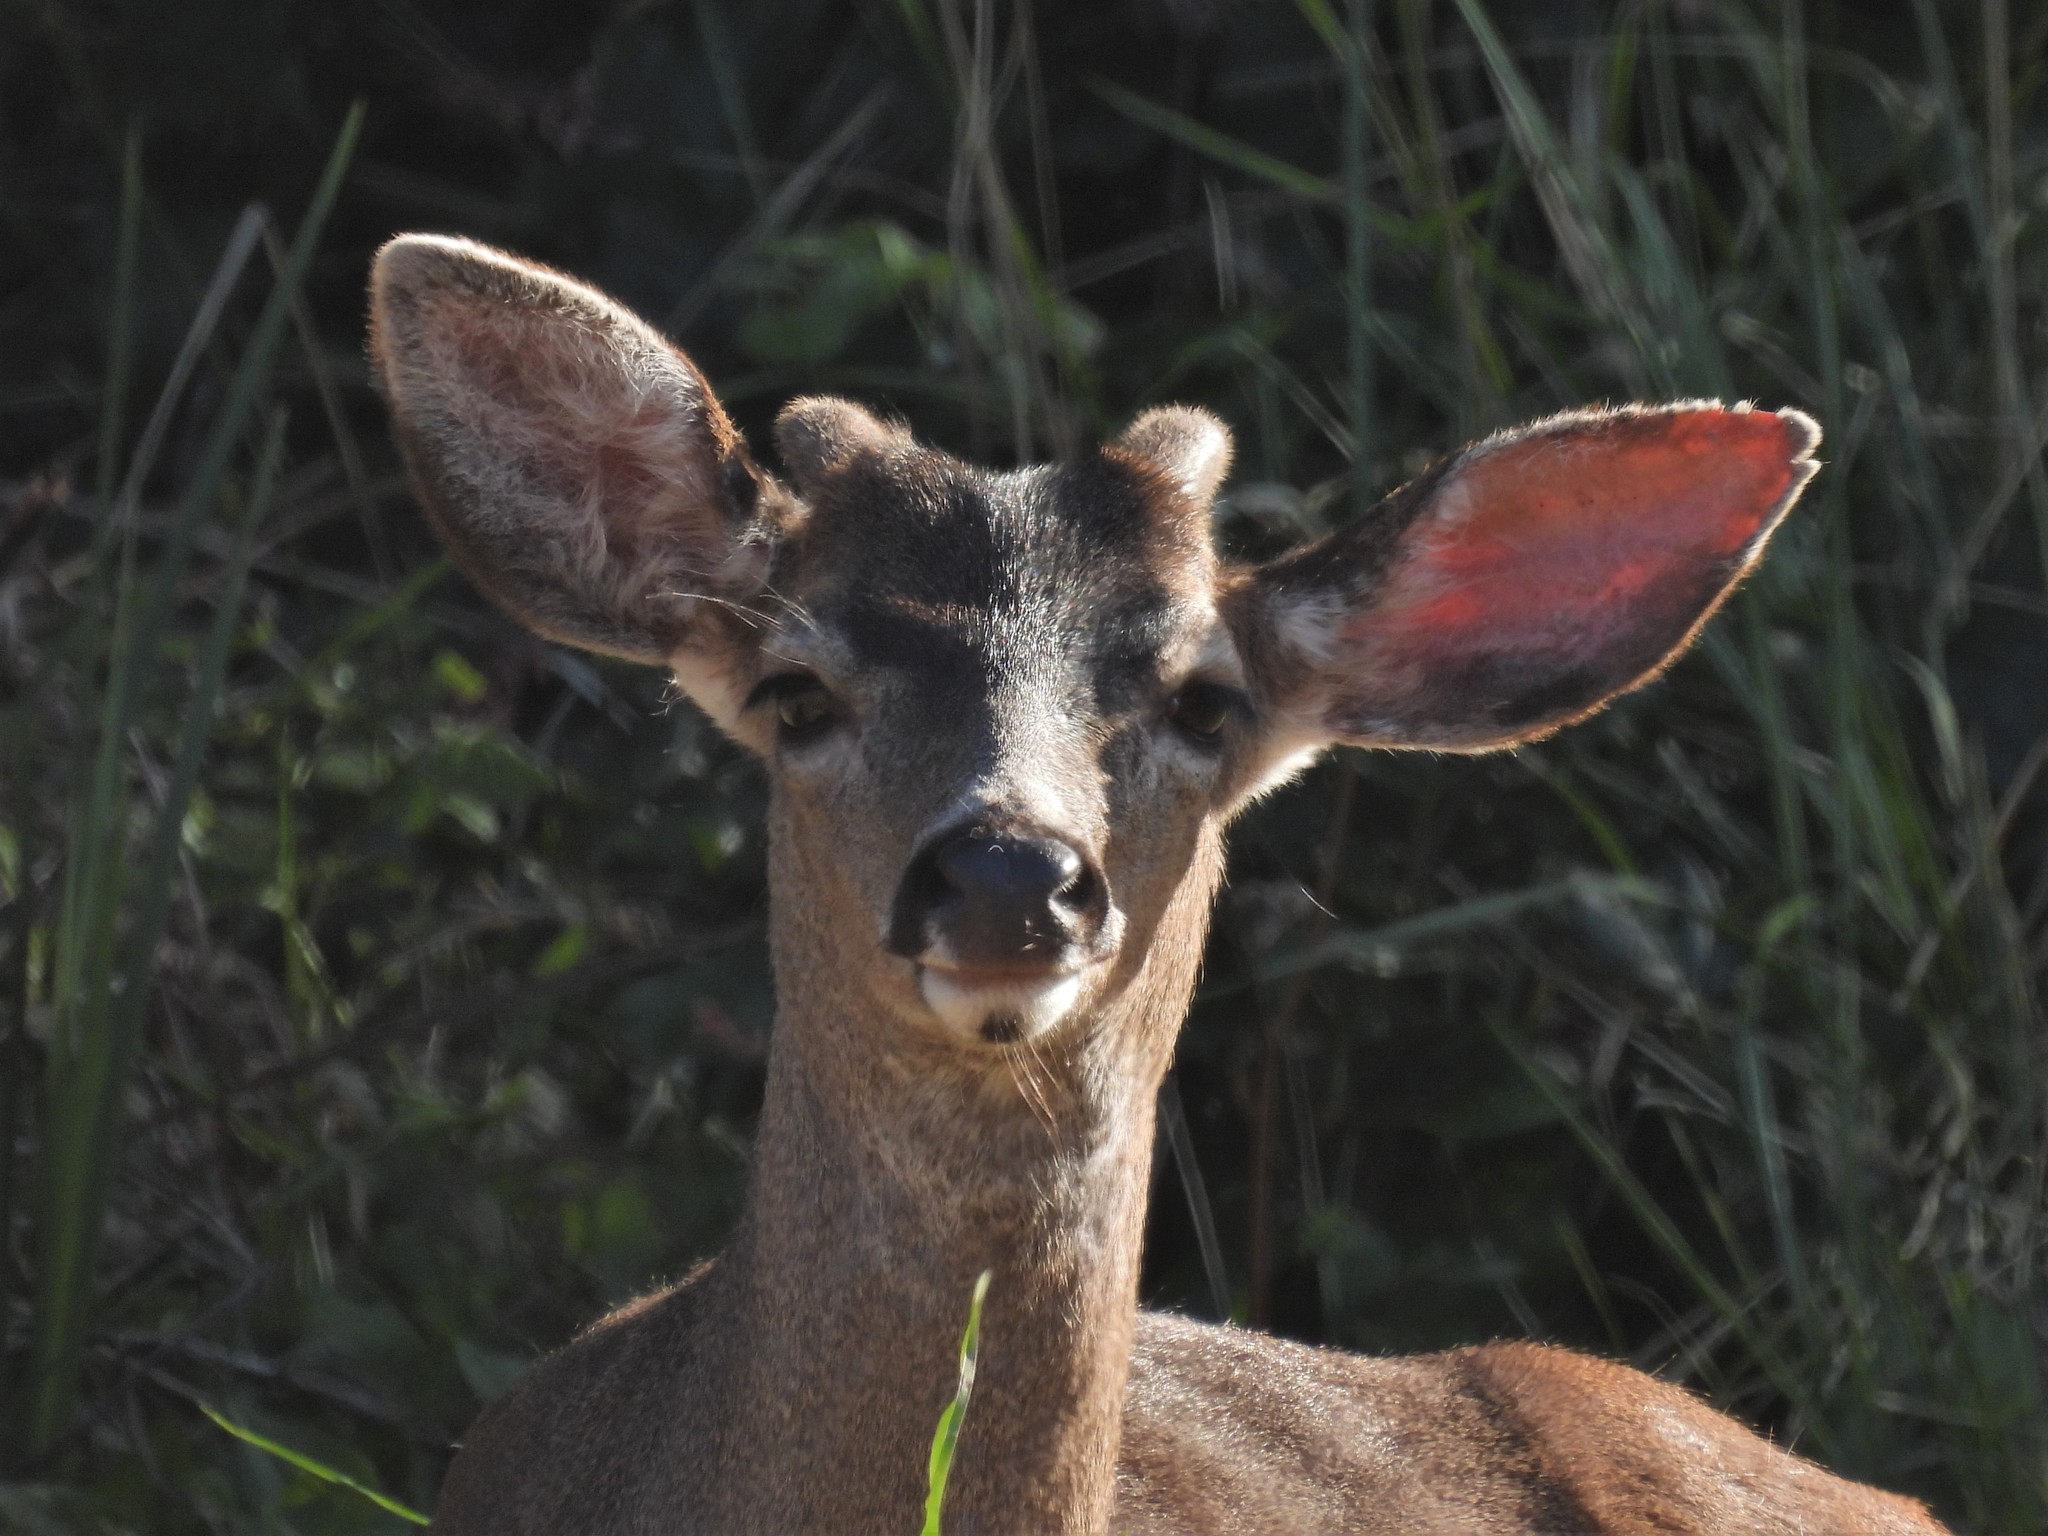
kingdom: Animalia
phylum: Chordata
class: Mammalia
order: Artiodactyla
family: Cervidae
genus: Odocoileus
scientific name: Odocoileus hemionus
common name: Mule deer
